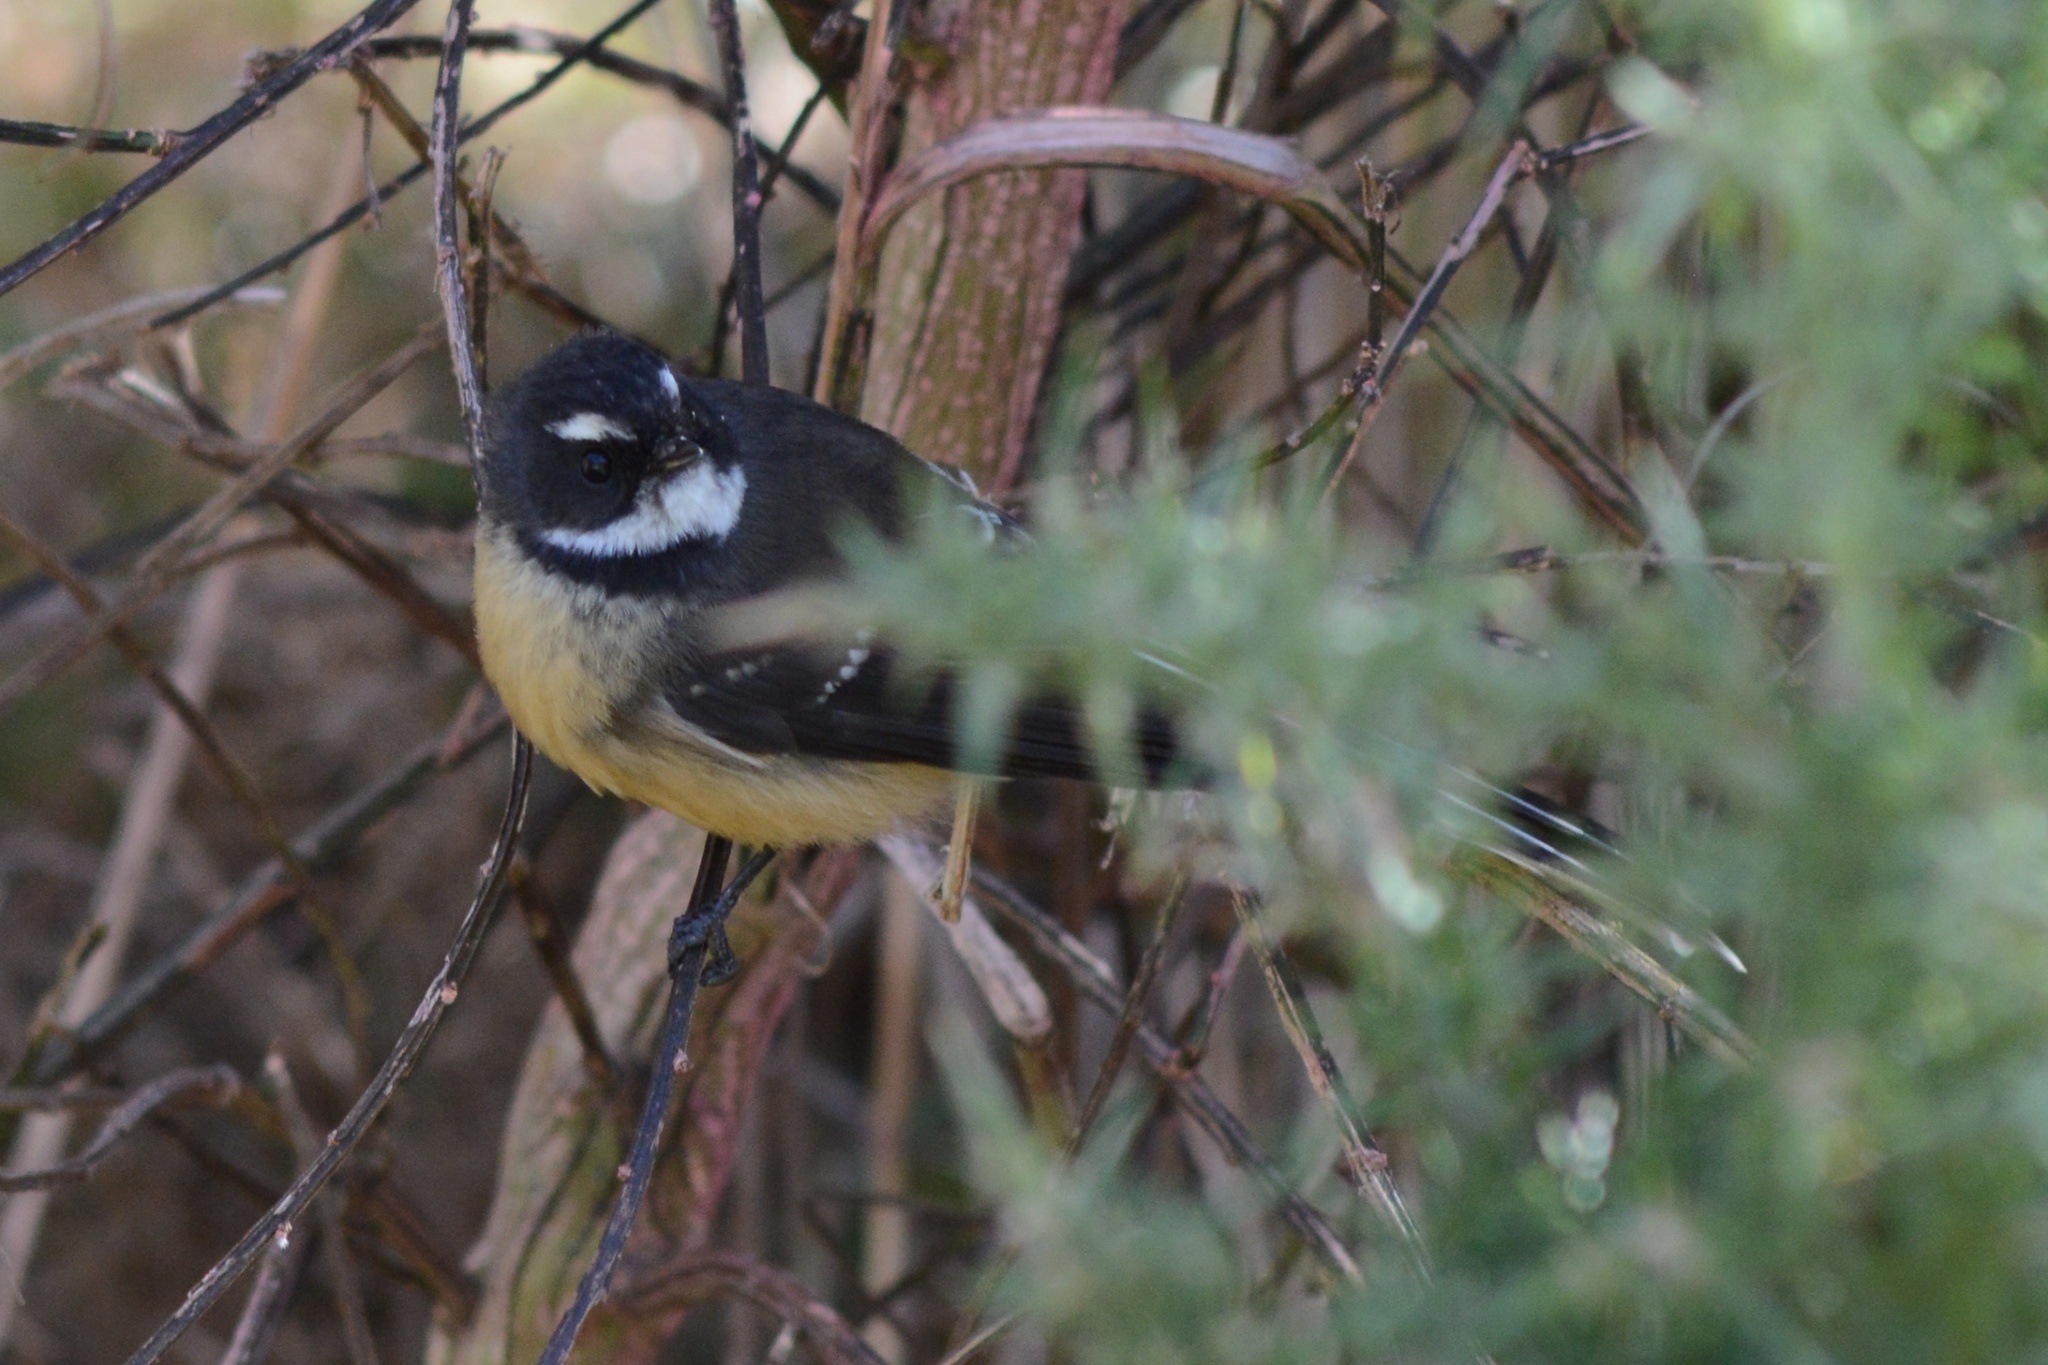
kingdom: Animalia
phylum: Chordata
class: Aves
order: Passeriformes
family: Rhipiduridae
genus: Rhipidura
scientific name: Rhipidura fuliginosa
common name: New zealand fantail
